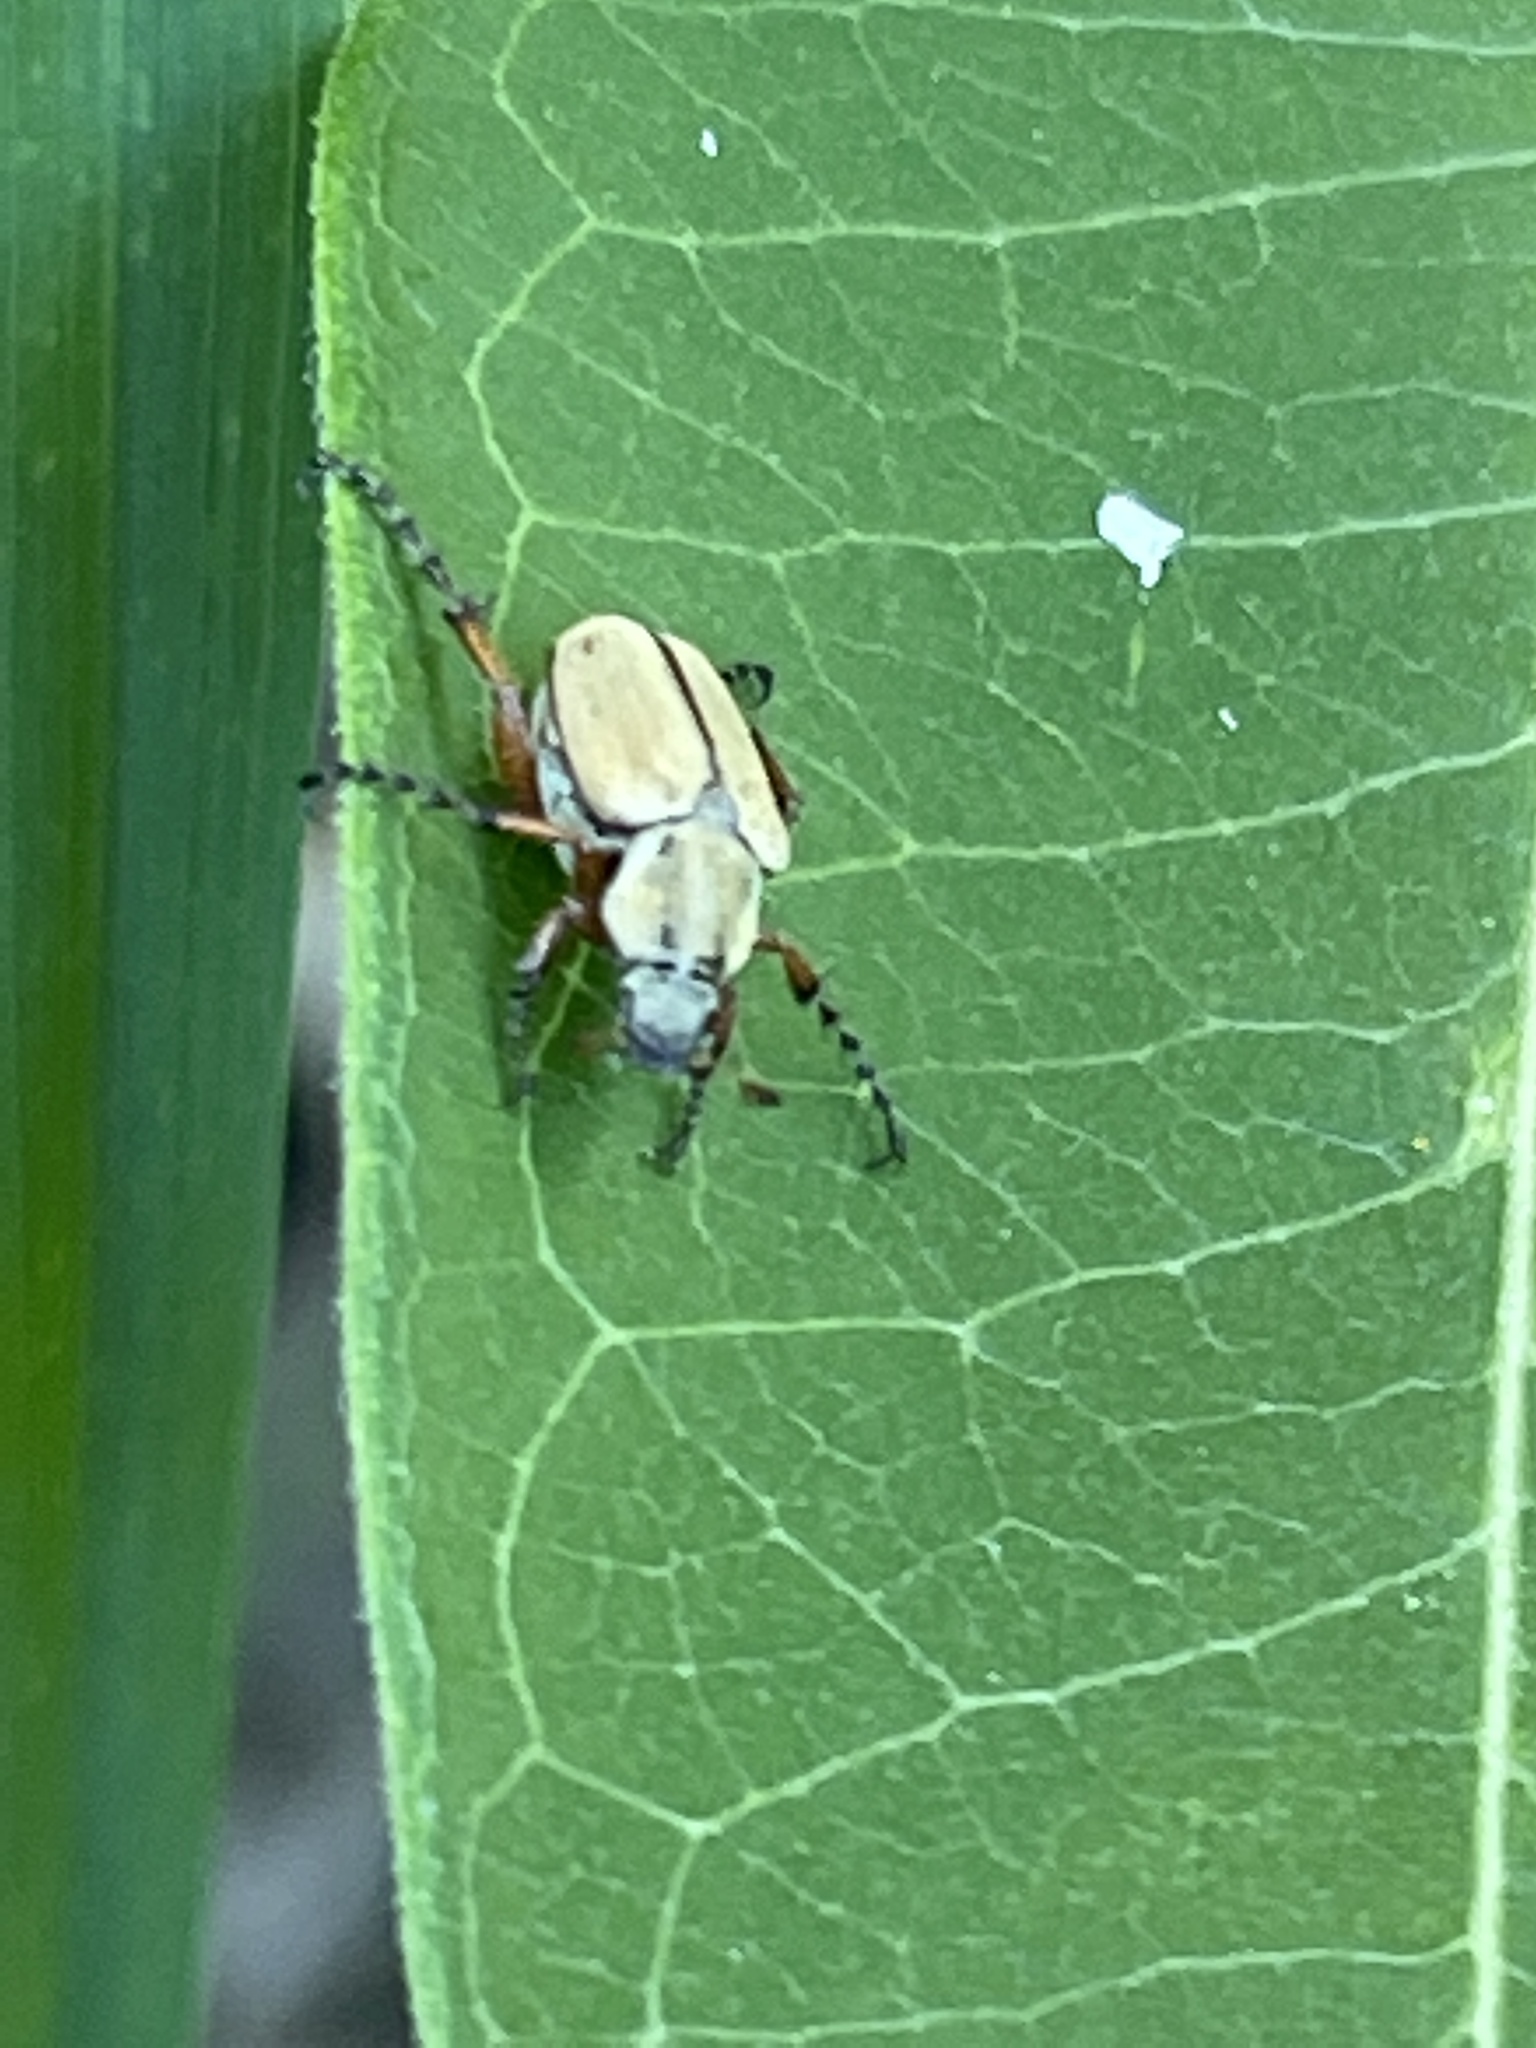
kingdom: Animalia
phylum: Arthropoda
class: Insecta
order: Coleoptera
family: Scarabaeidae
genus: Macrodactylus
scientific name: Macrodactylus subspinosus
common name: American rose chafer
